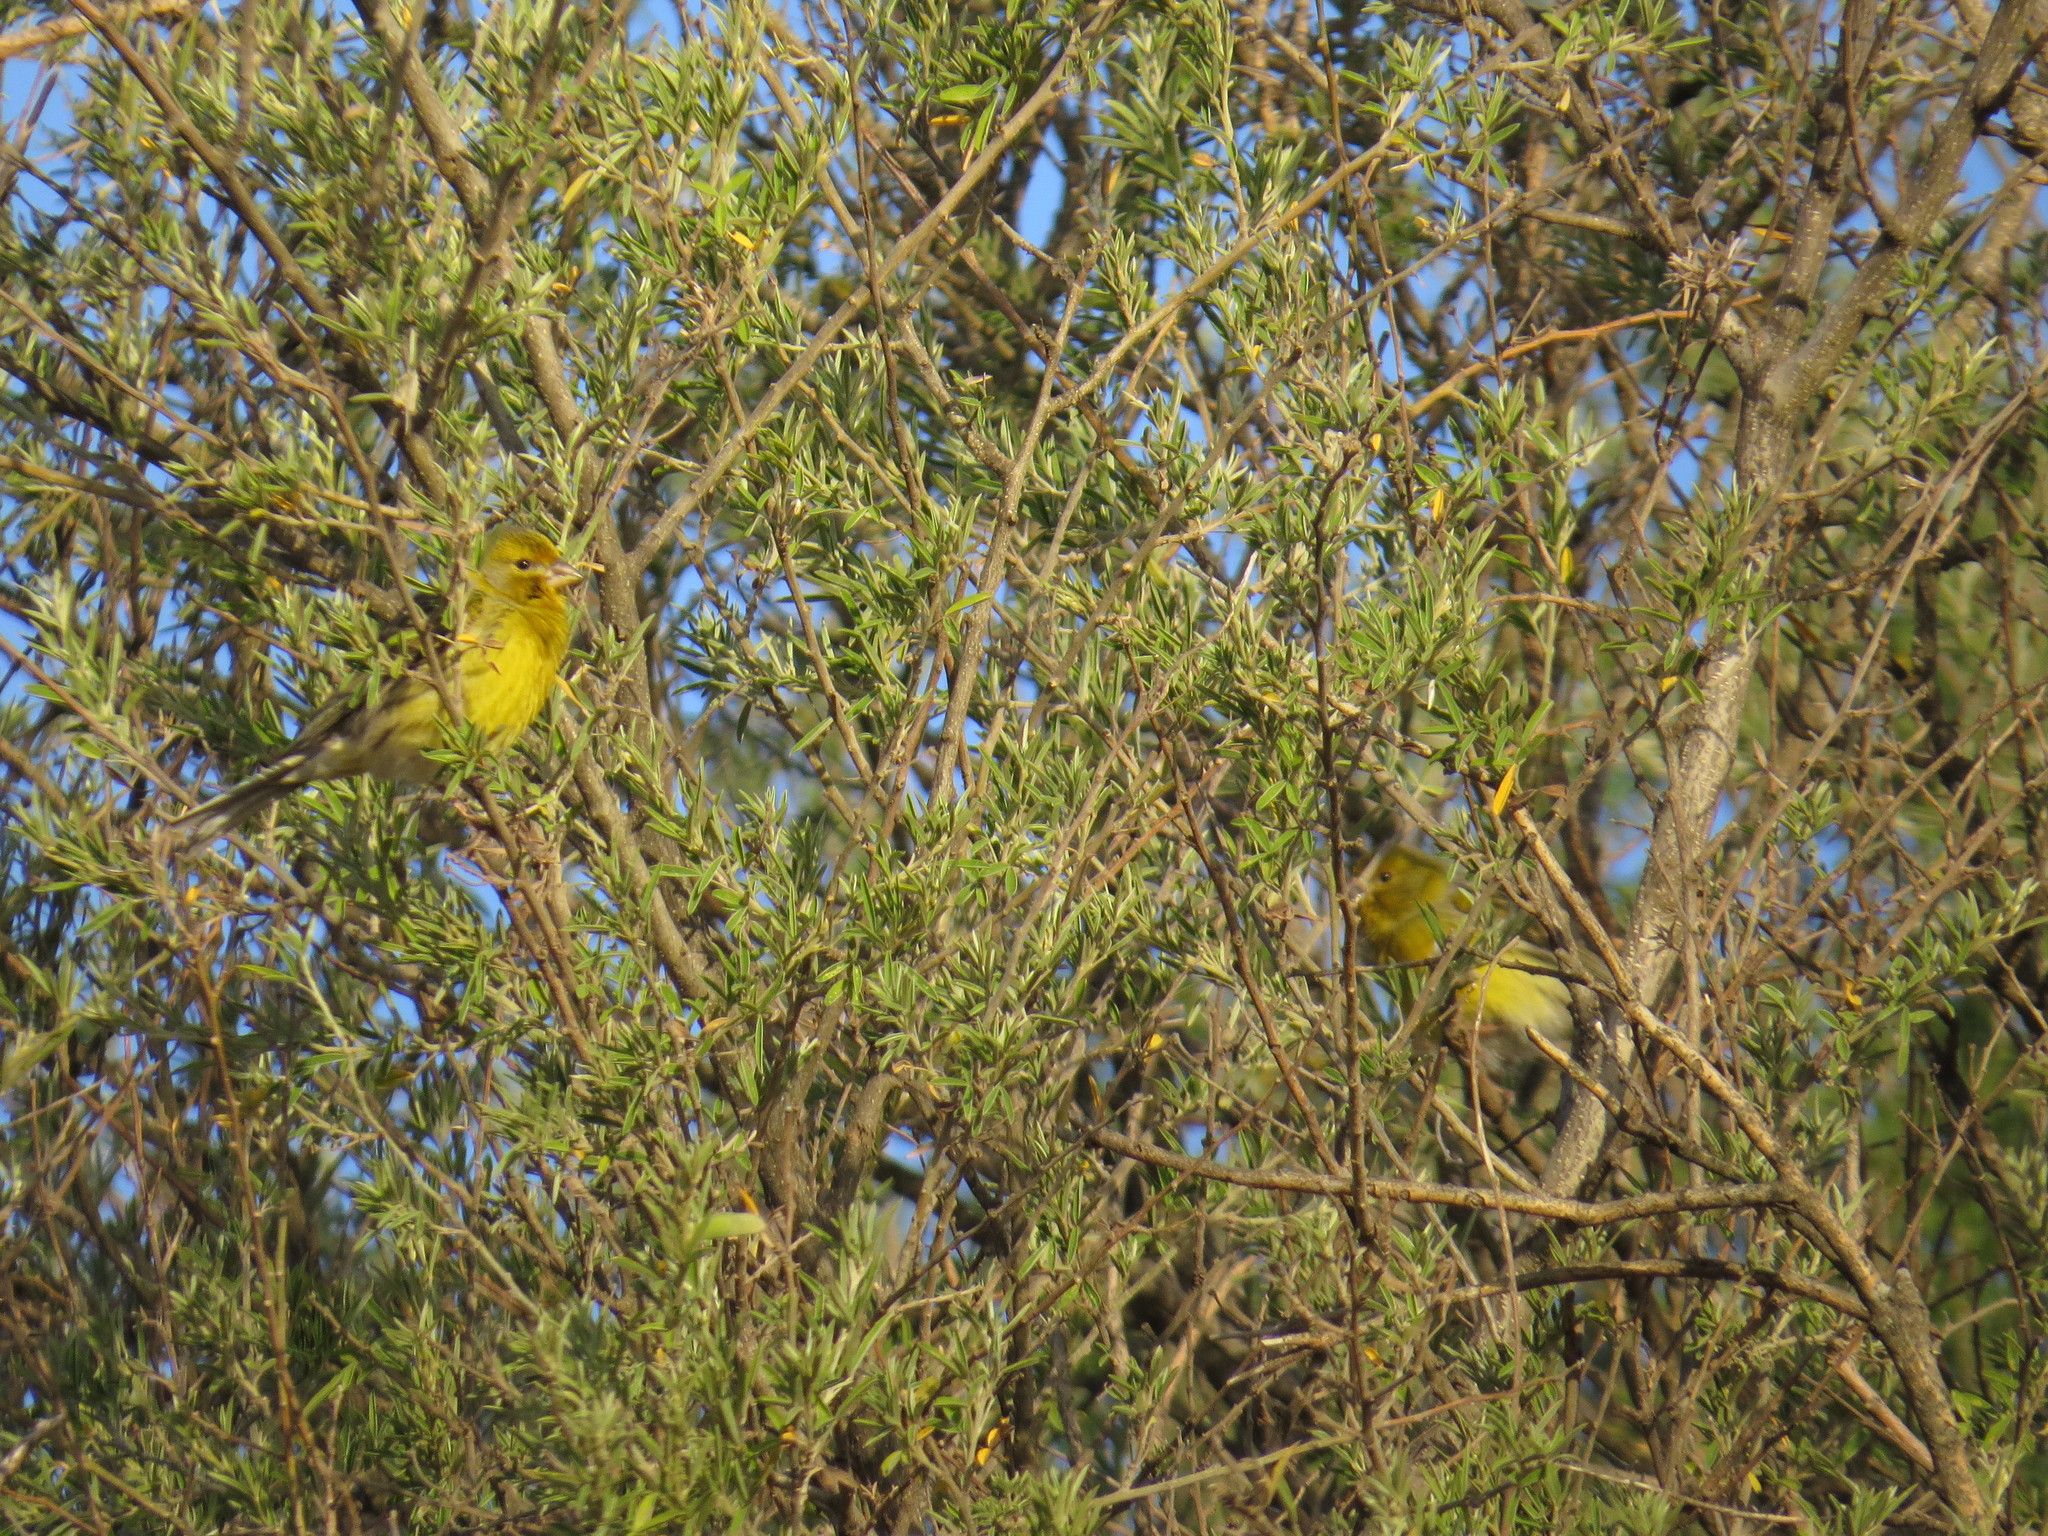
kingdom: Animalia
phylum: Chordata
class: Aves
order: Passeriformes
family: Fringillidae
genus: Serinus
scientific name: Serinus canaria
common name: Atlantic canary
